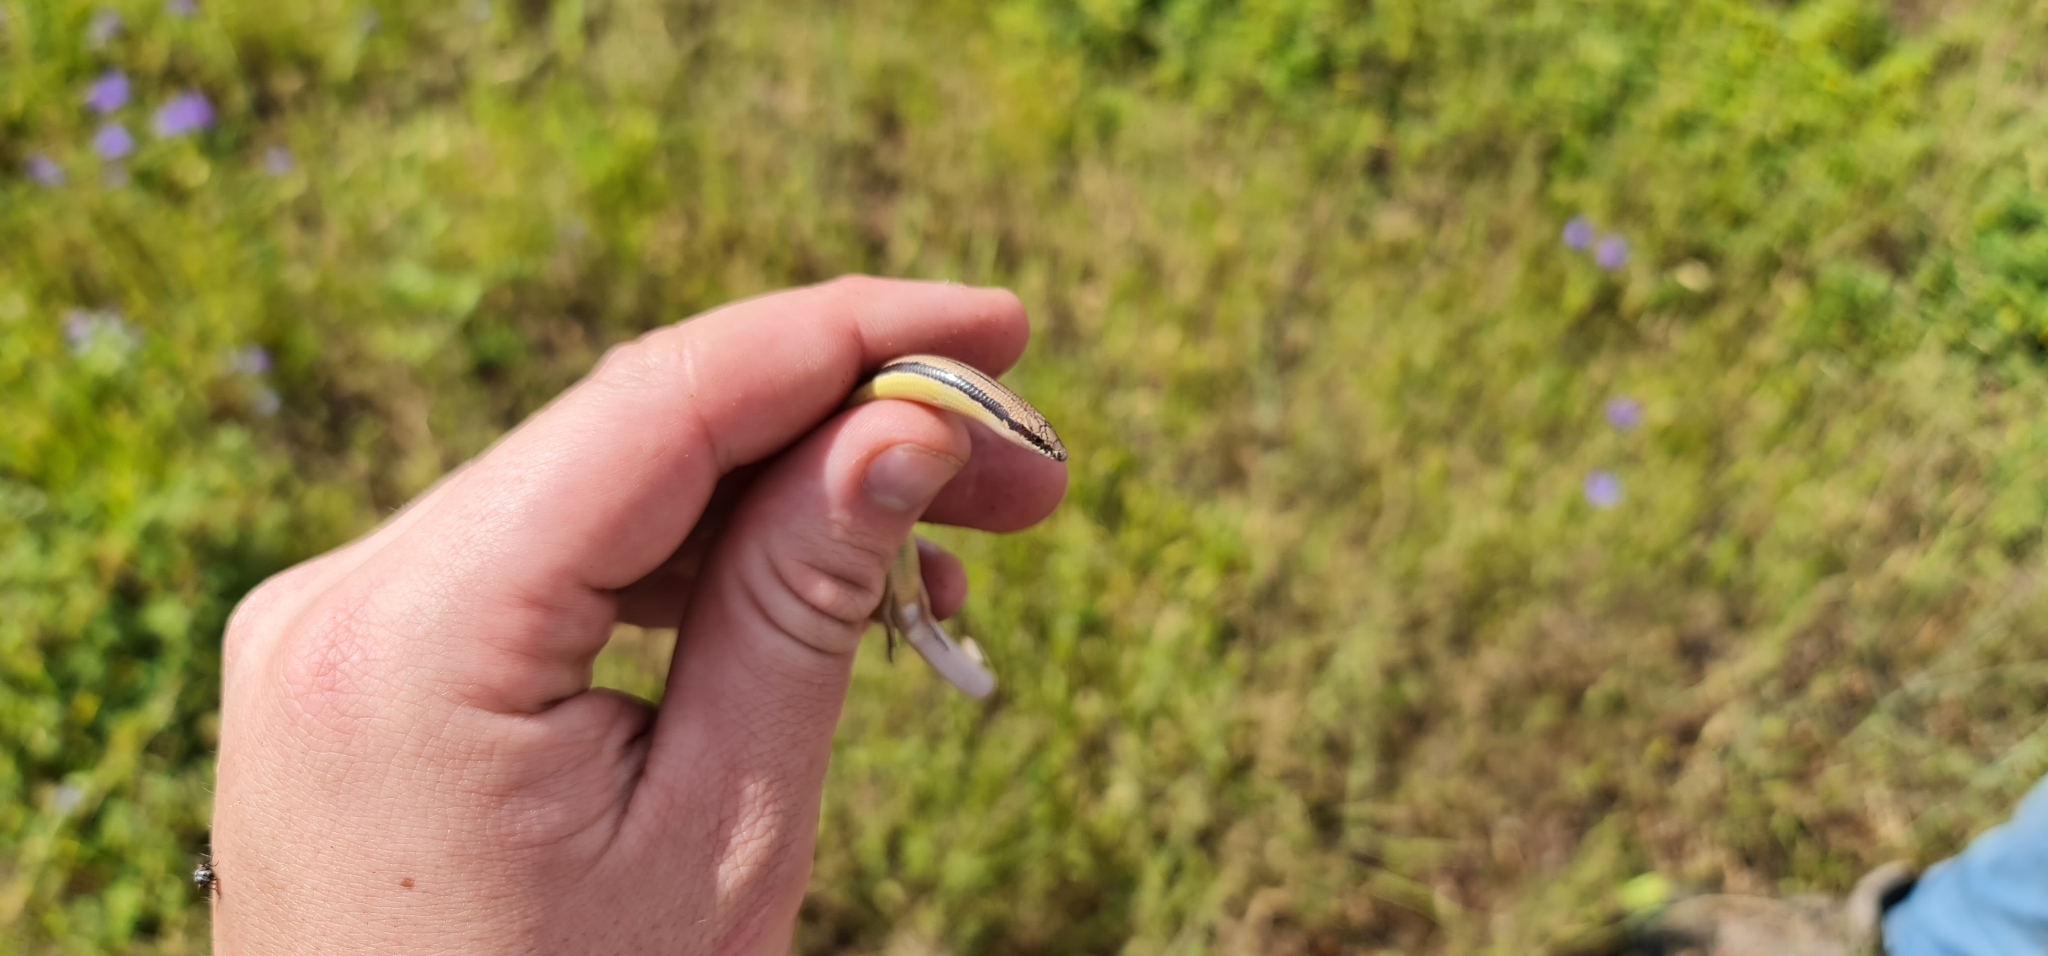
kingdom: Animalia
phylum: Chordata
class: Squamata
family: Scincidae
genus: Lerista
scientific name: Lerista edwardsae
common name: Myall slider
